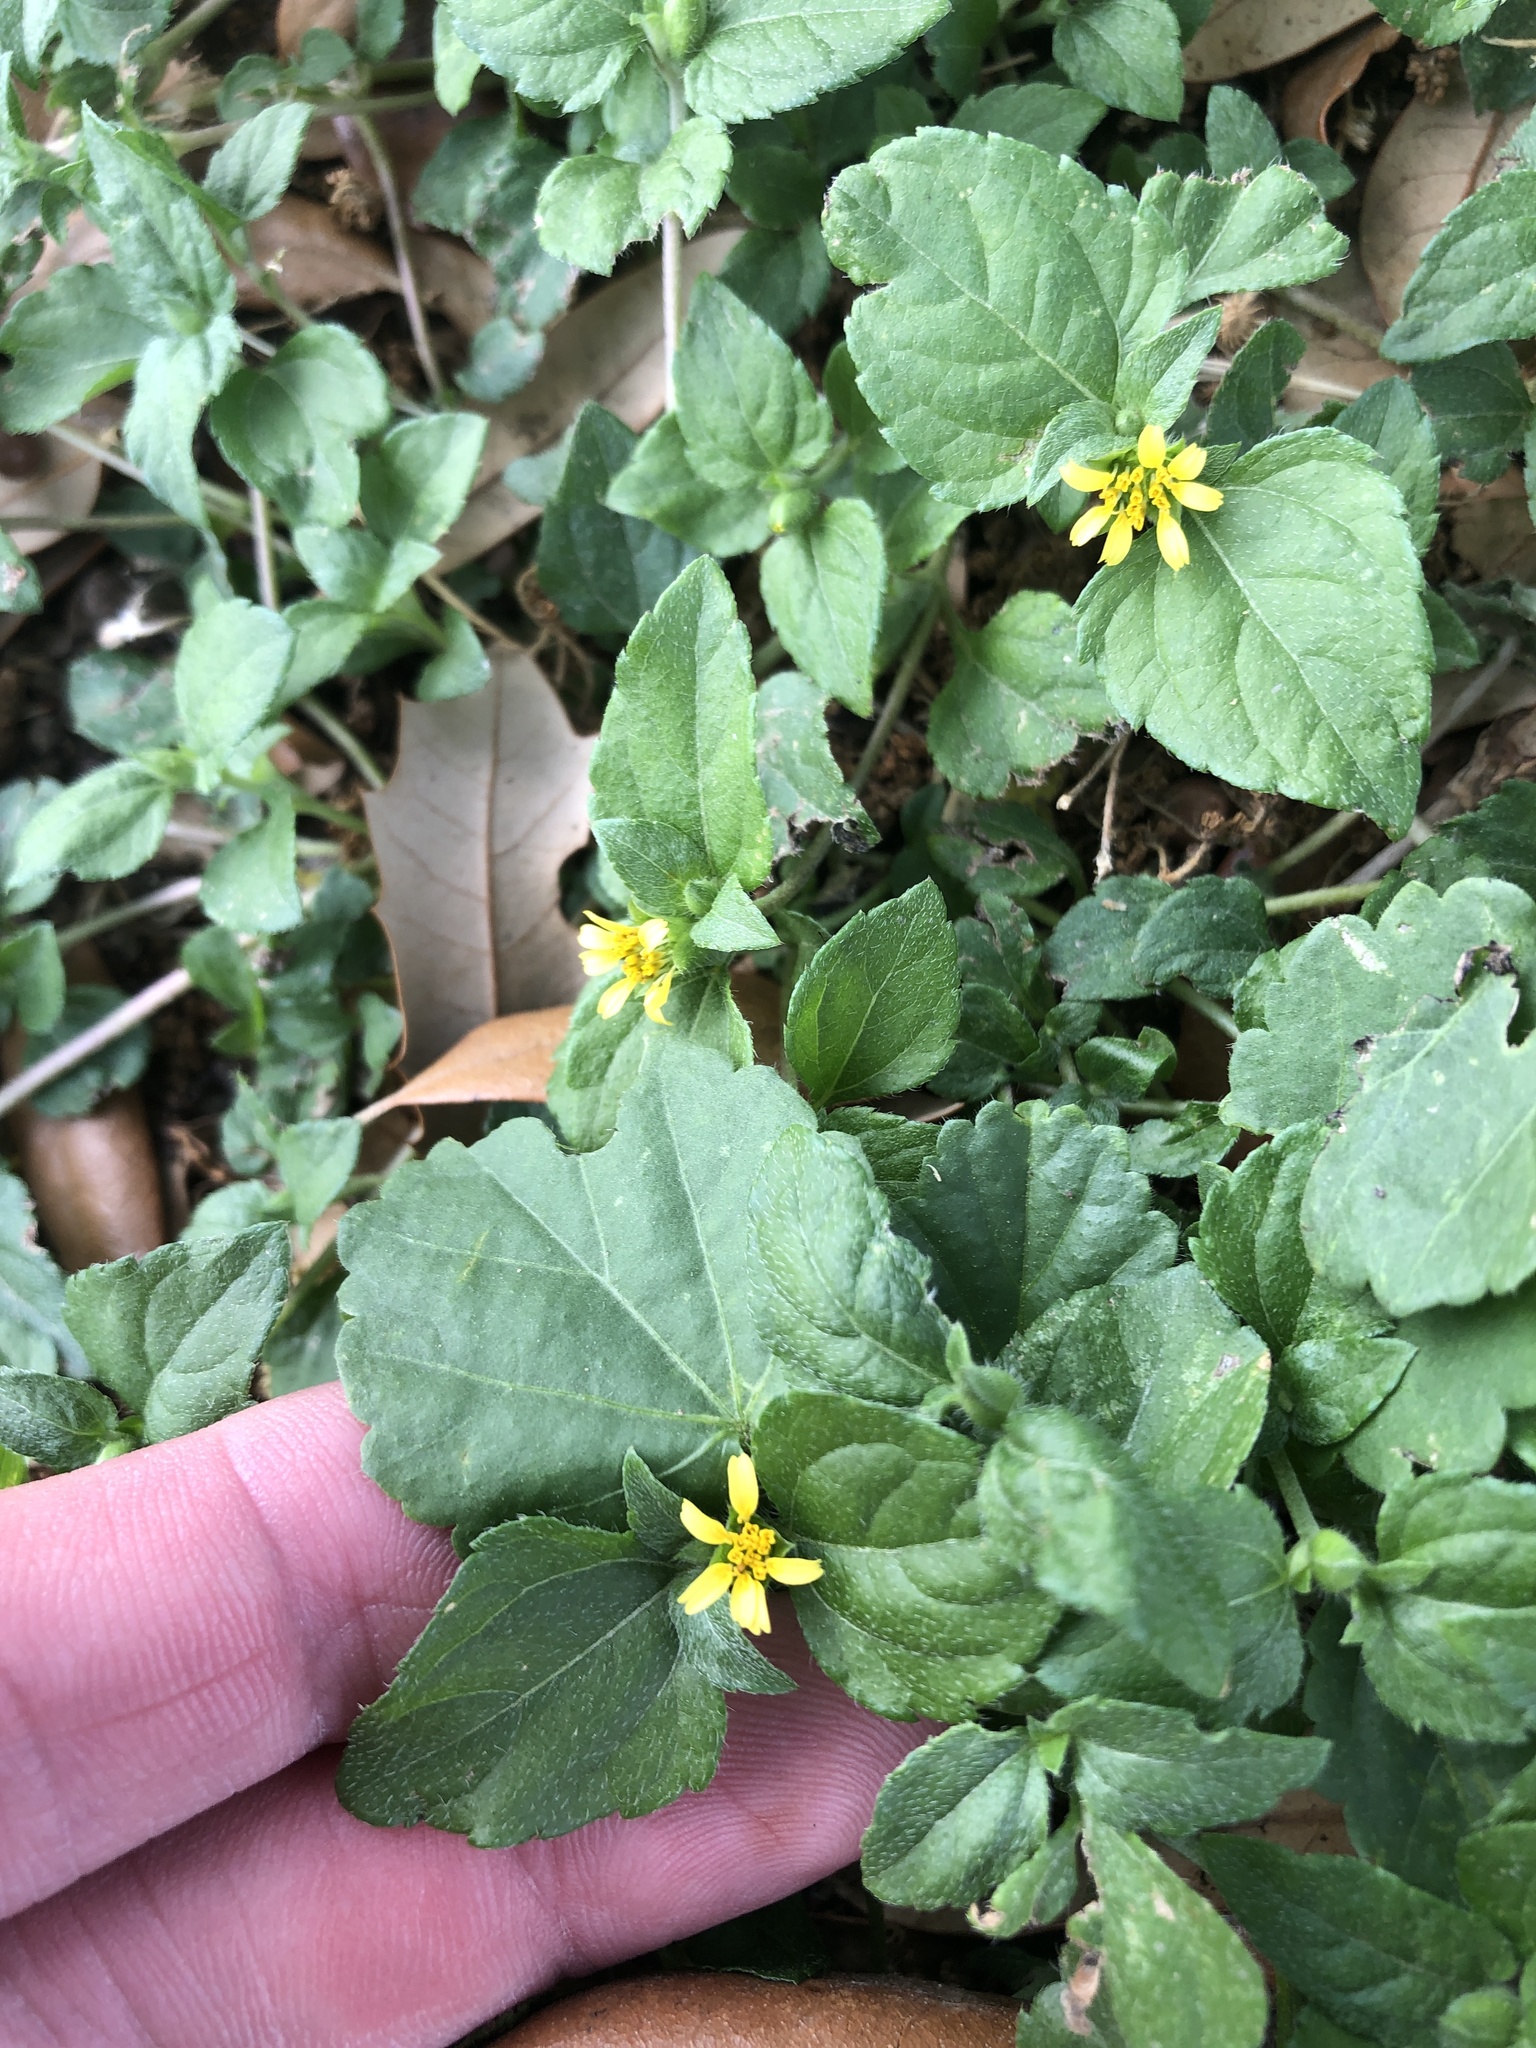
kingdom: Plantae
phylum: Tracheophyta
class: Magnoliopsida
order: Asterales
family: Asteraceae
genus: Calyptocarpus
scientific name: Calyptocarpus vialis
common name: Straggler daisy
